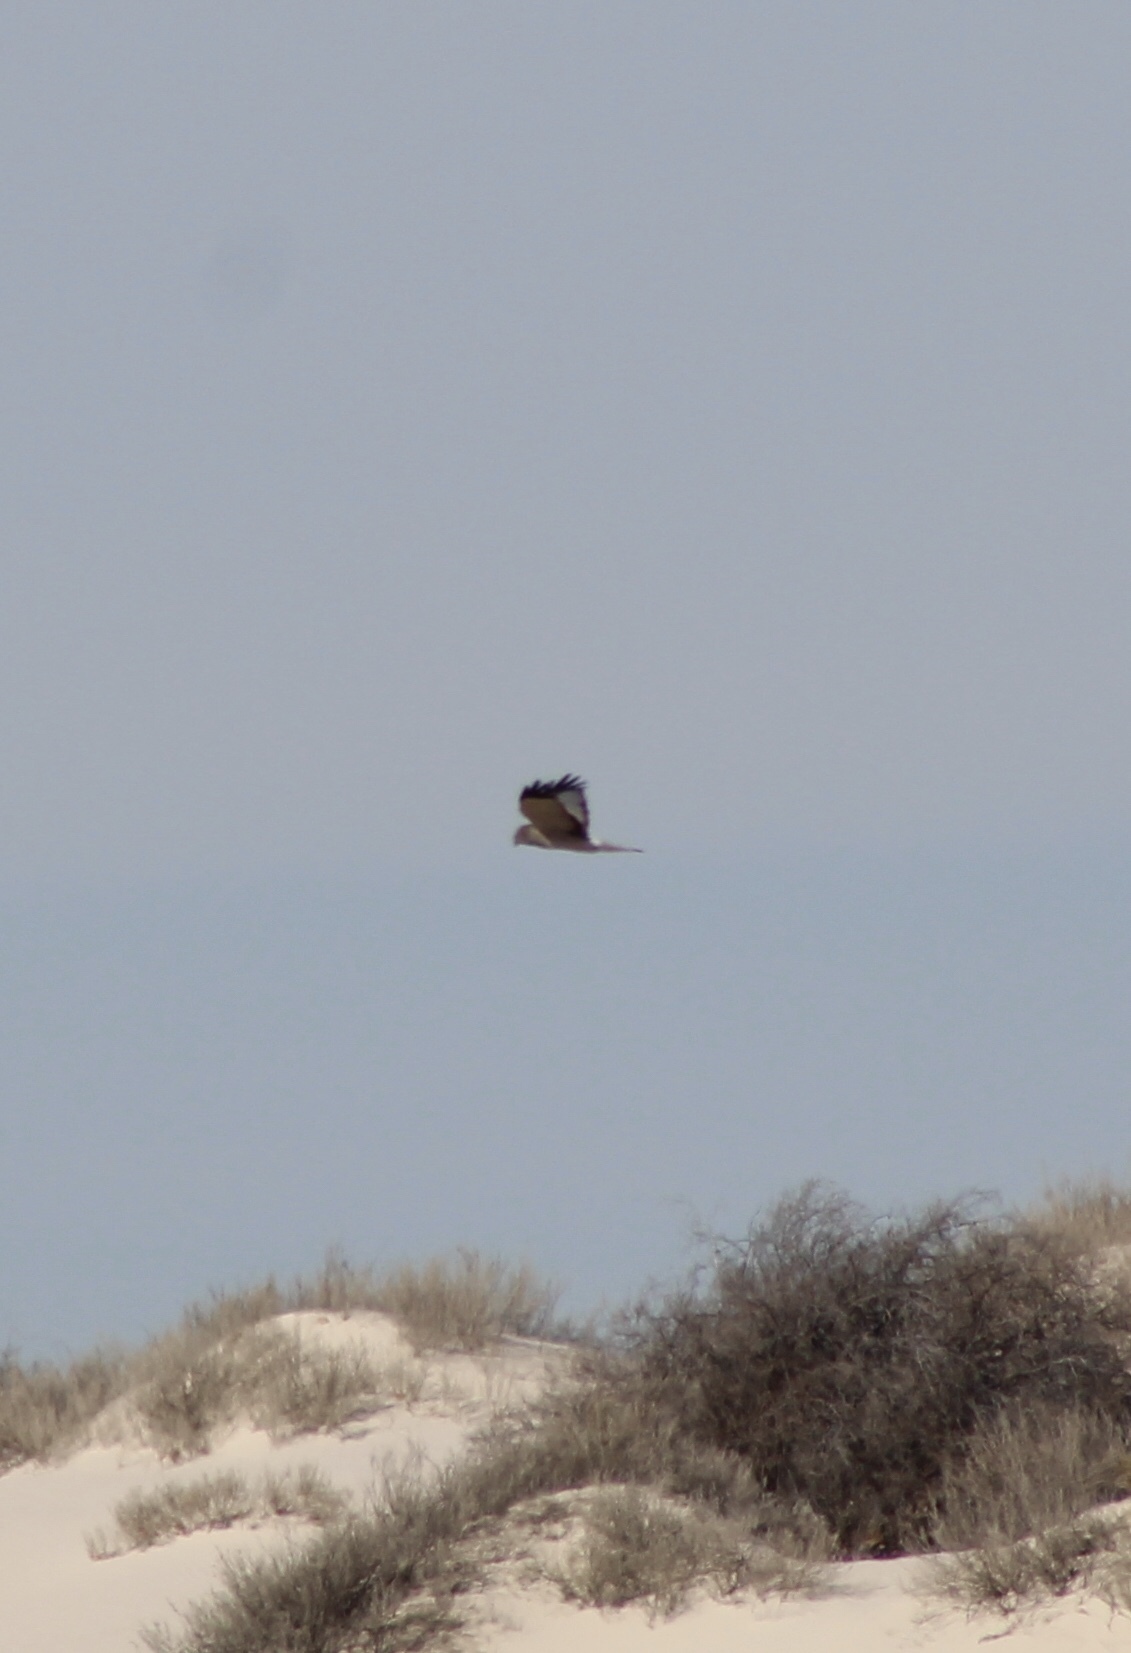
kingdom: Animalia
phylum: Chordata
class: Aves
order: Accipitriformes
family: Accipitridae
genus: Circus
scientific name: Circus cyaneus
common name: Hen harrier
